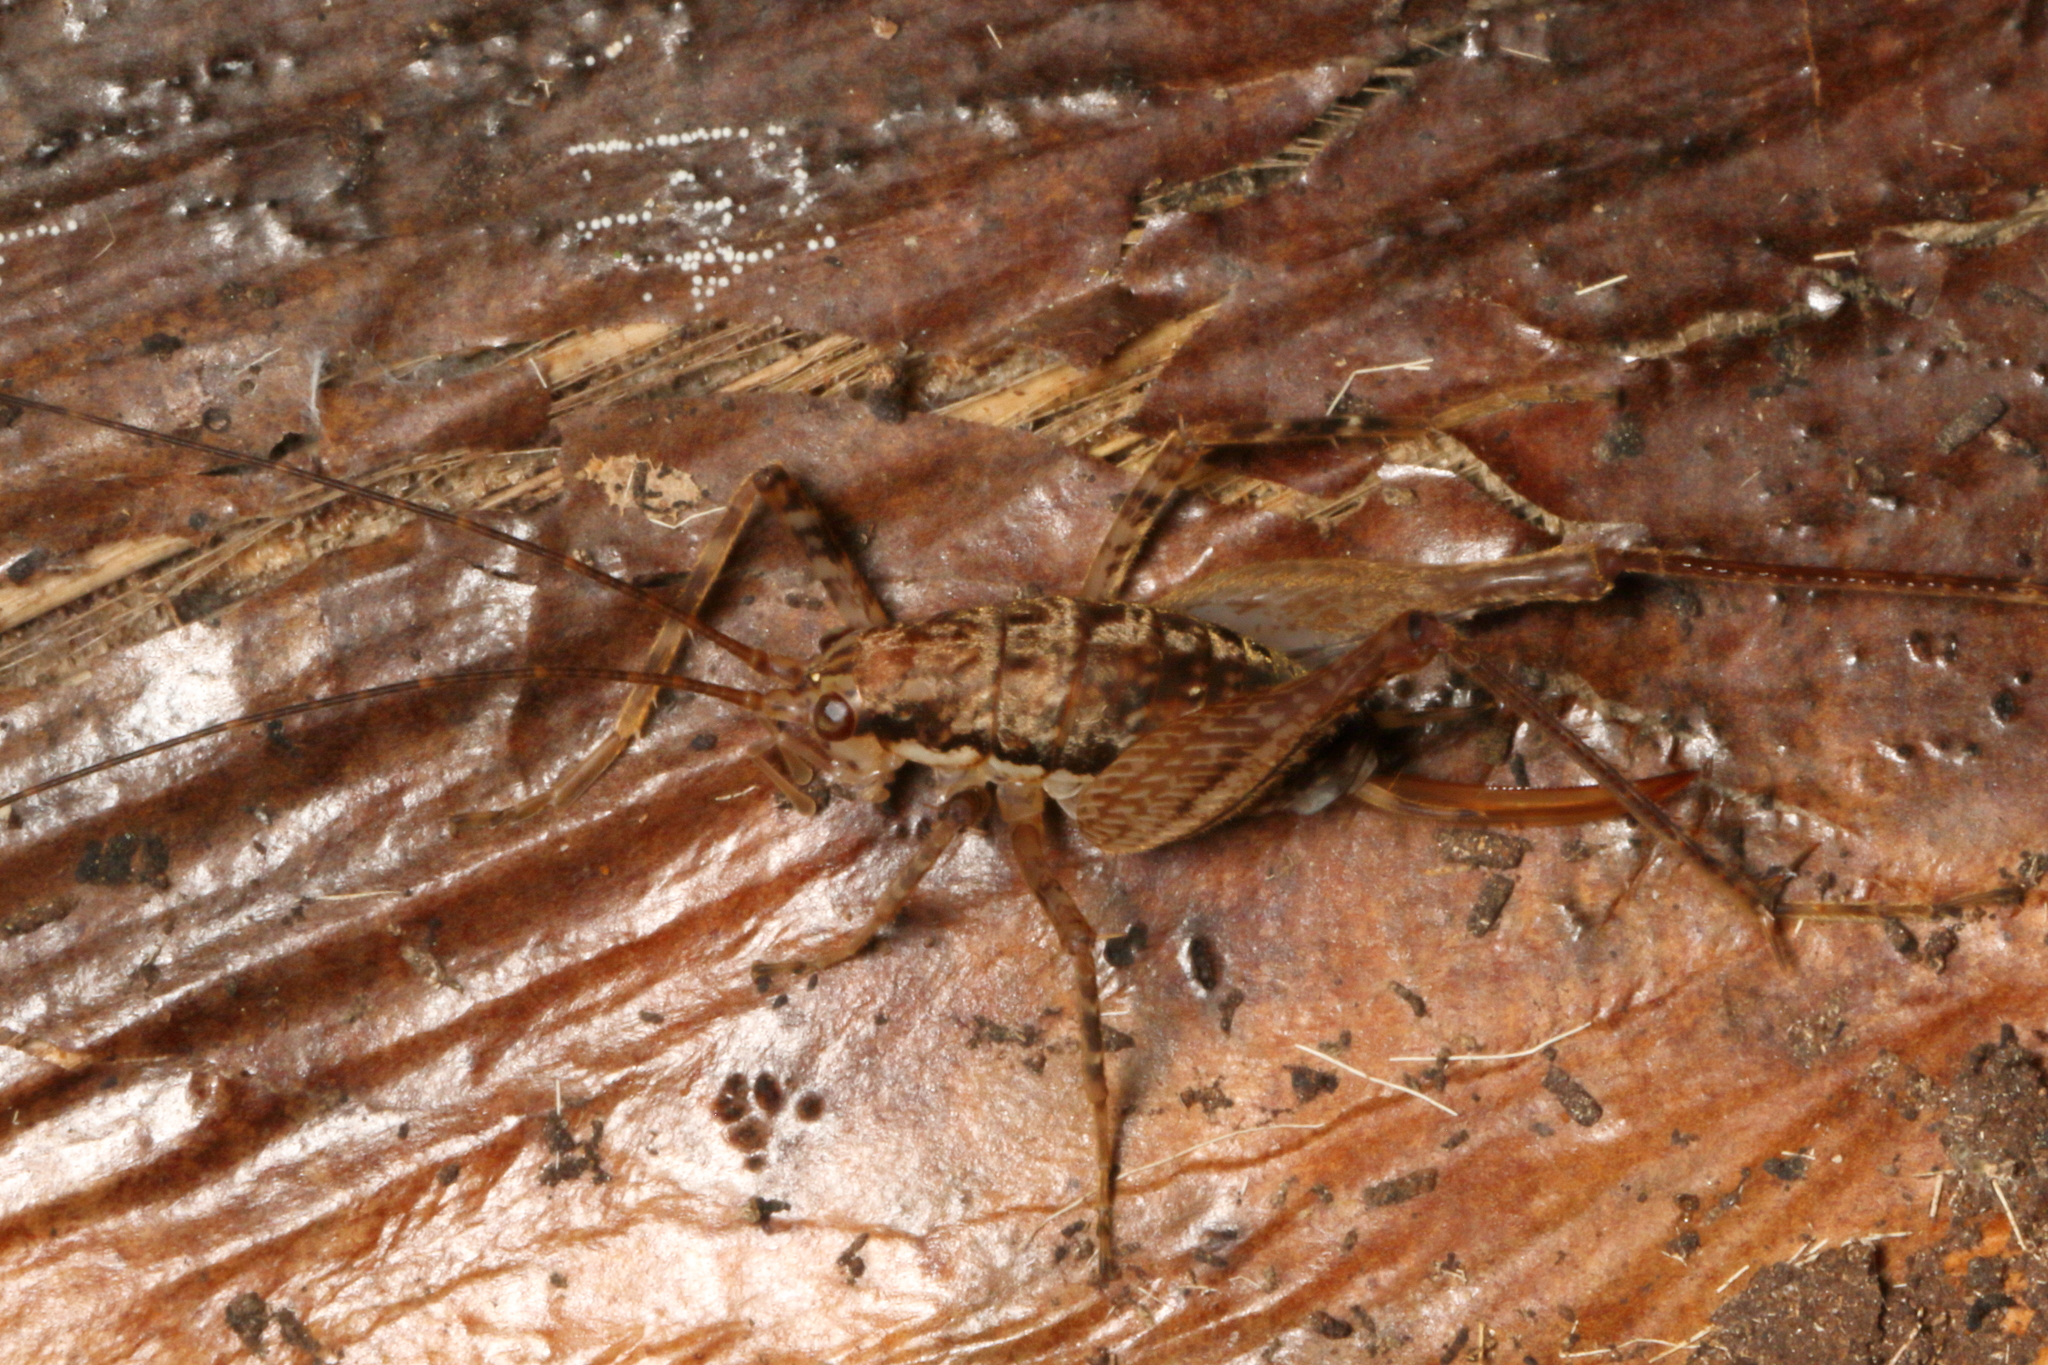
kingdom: Animalia
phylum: Arthropoda
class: Insecta
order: Orthoptera
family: Rhaphidophoridae
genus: Neonetus
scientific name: Neonetus variegatus
